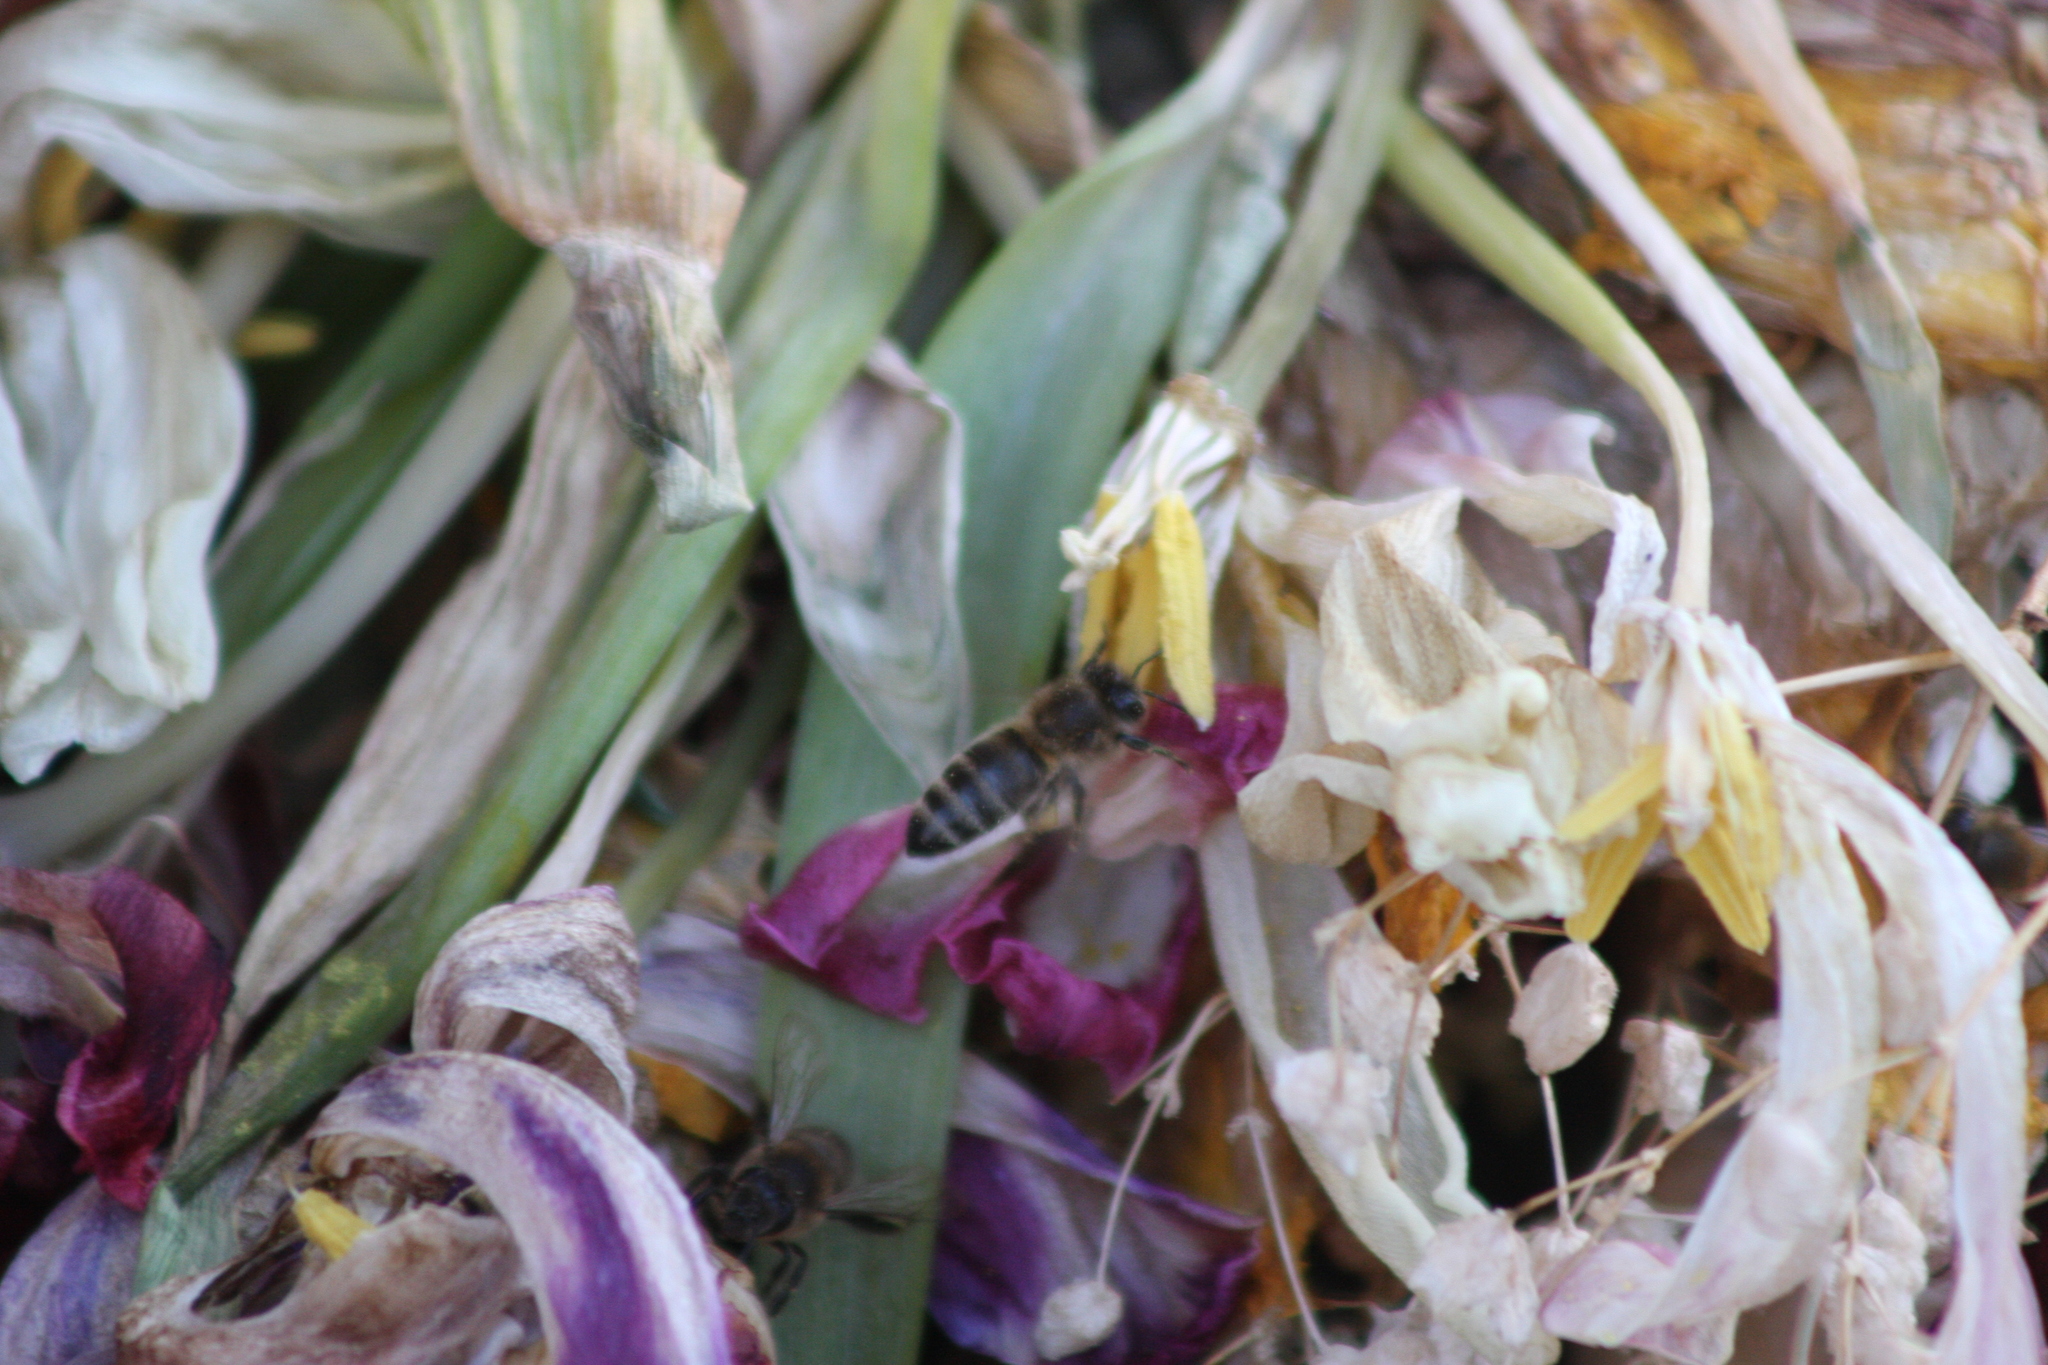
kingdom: Animalia
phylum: Arthropoda
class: Insecta
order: Hymenoptera
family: Apidae
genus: Apis
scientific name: Apis mellifera
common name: Honey bee
